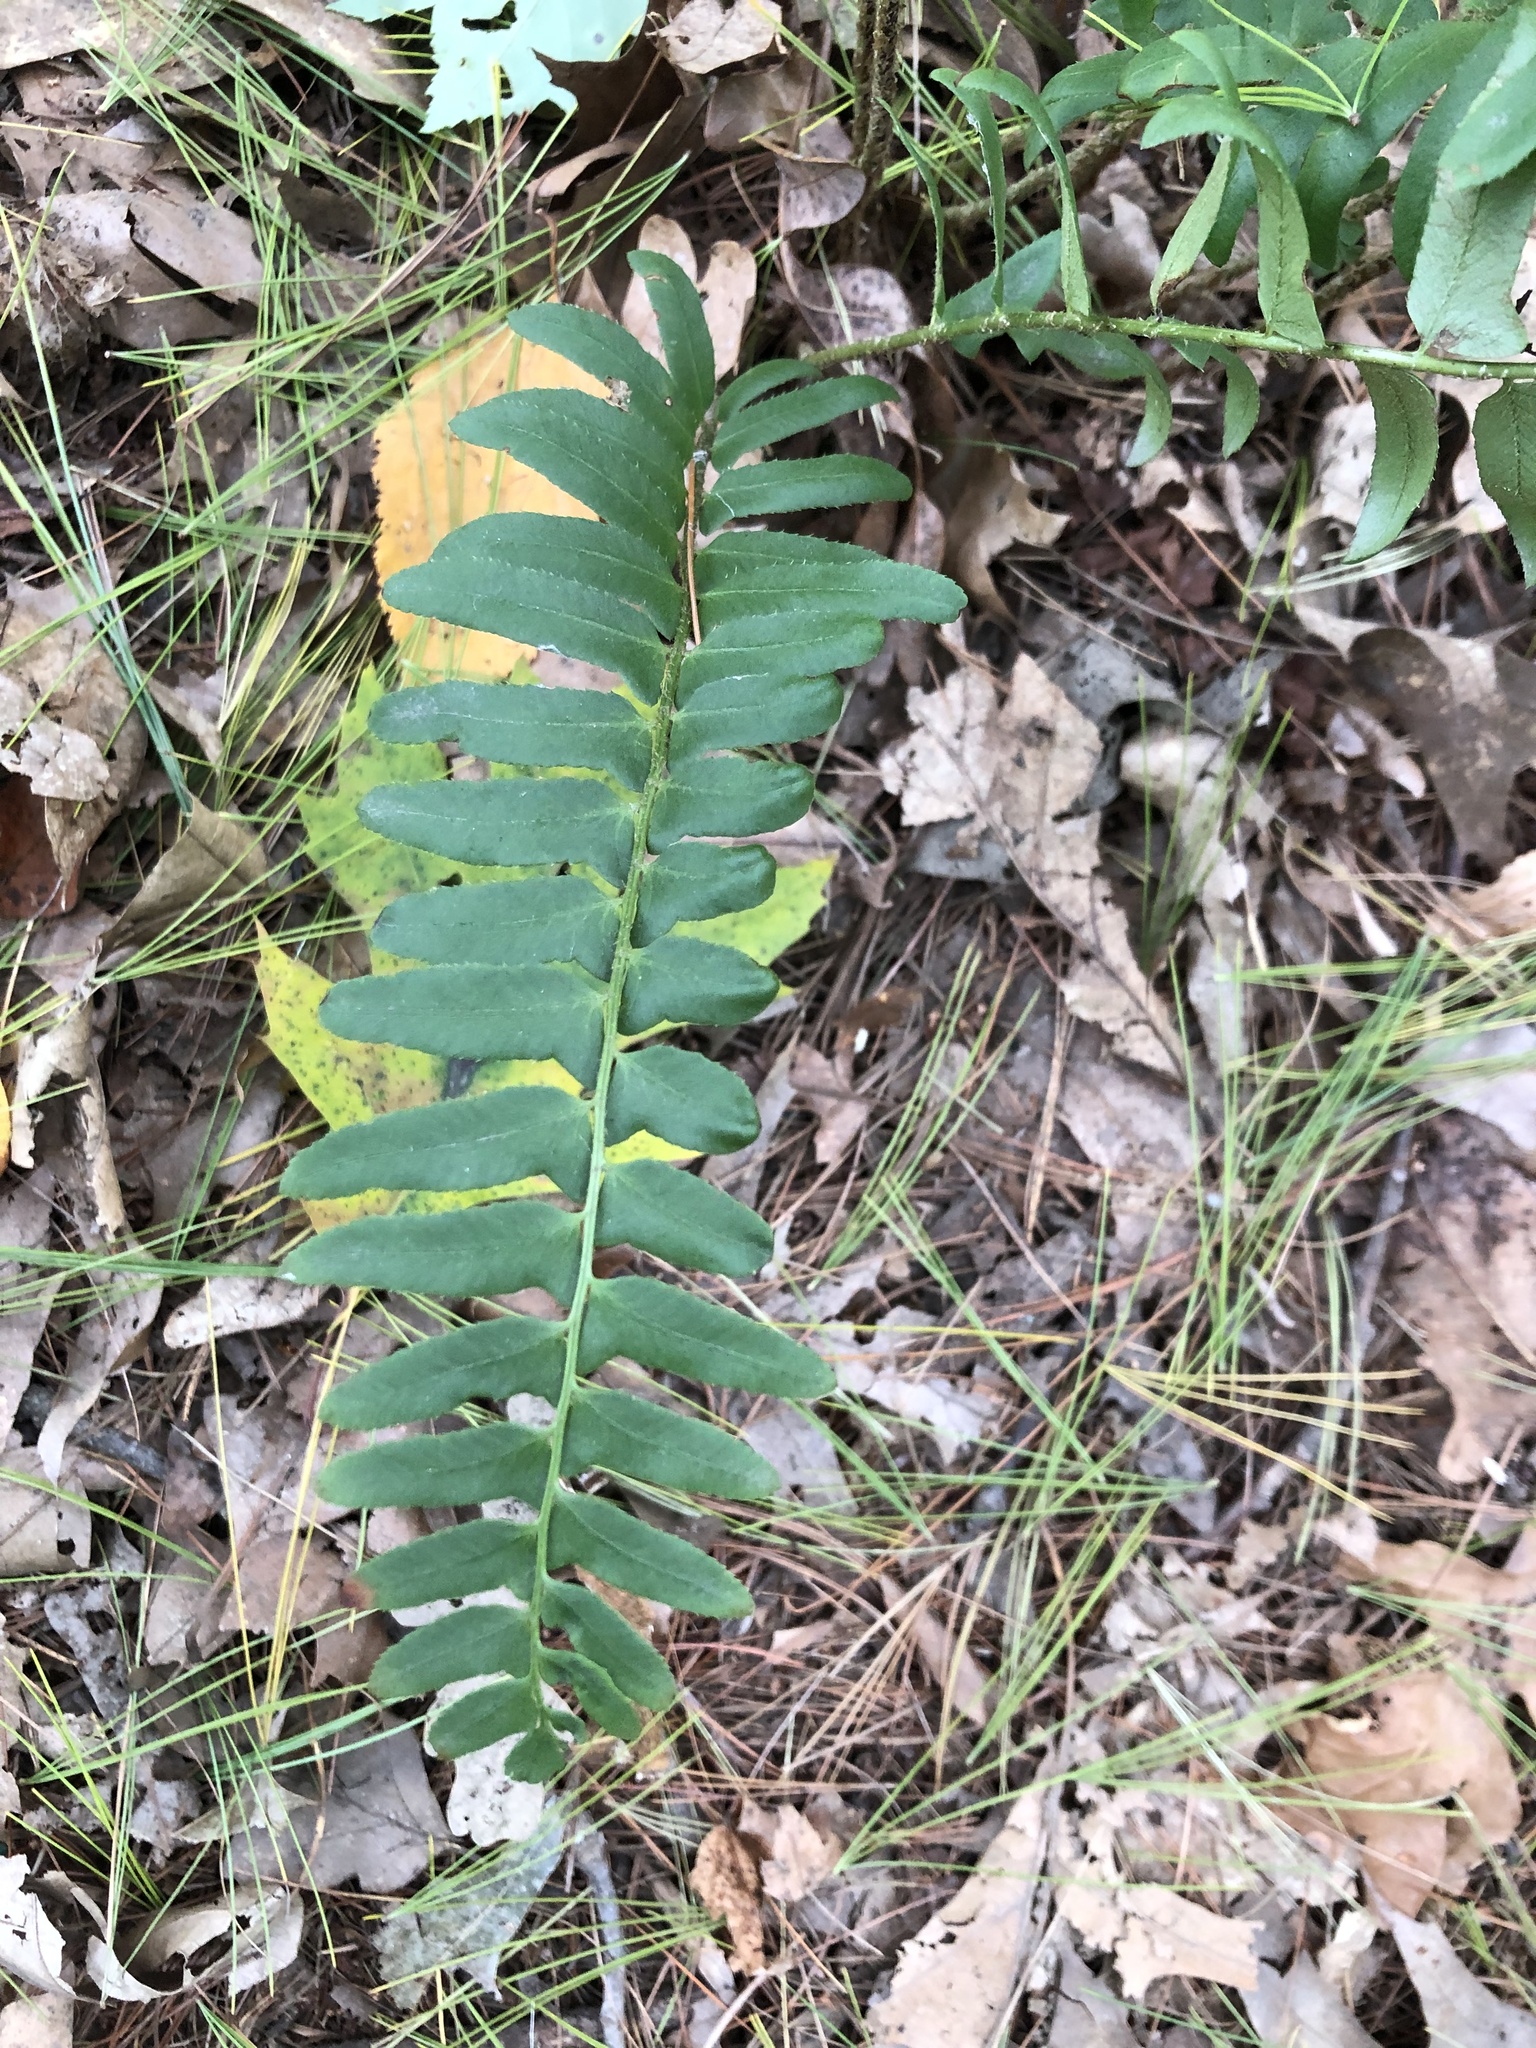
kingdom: Plantae
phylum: Tracheophyta
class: Polypodiopsida
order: Polypodiales
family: Dryopteridaceae
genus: Polystichum
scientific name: Polystichum acrostichoides
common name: Christmas fern
